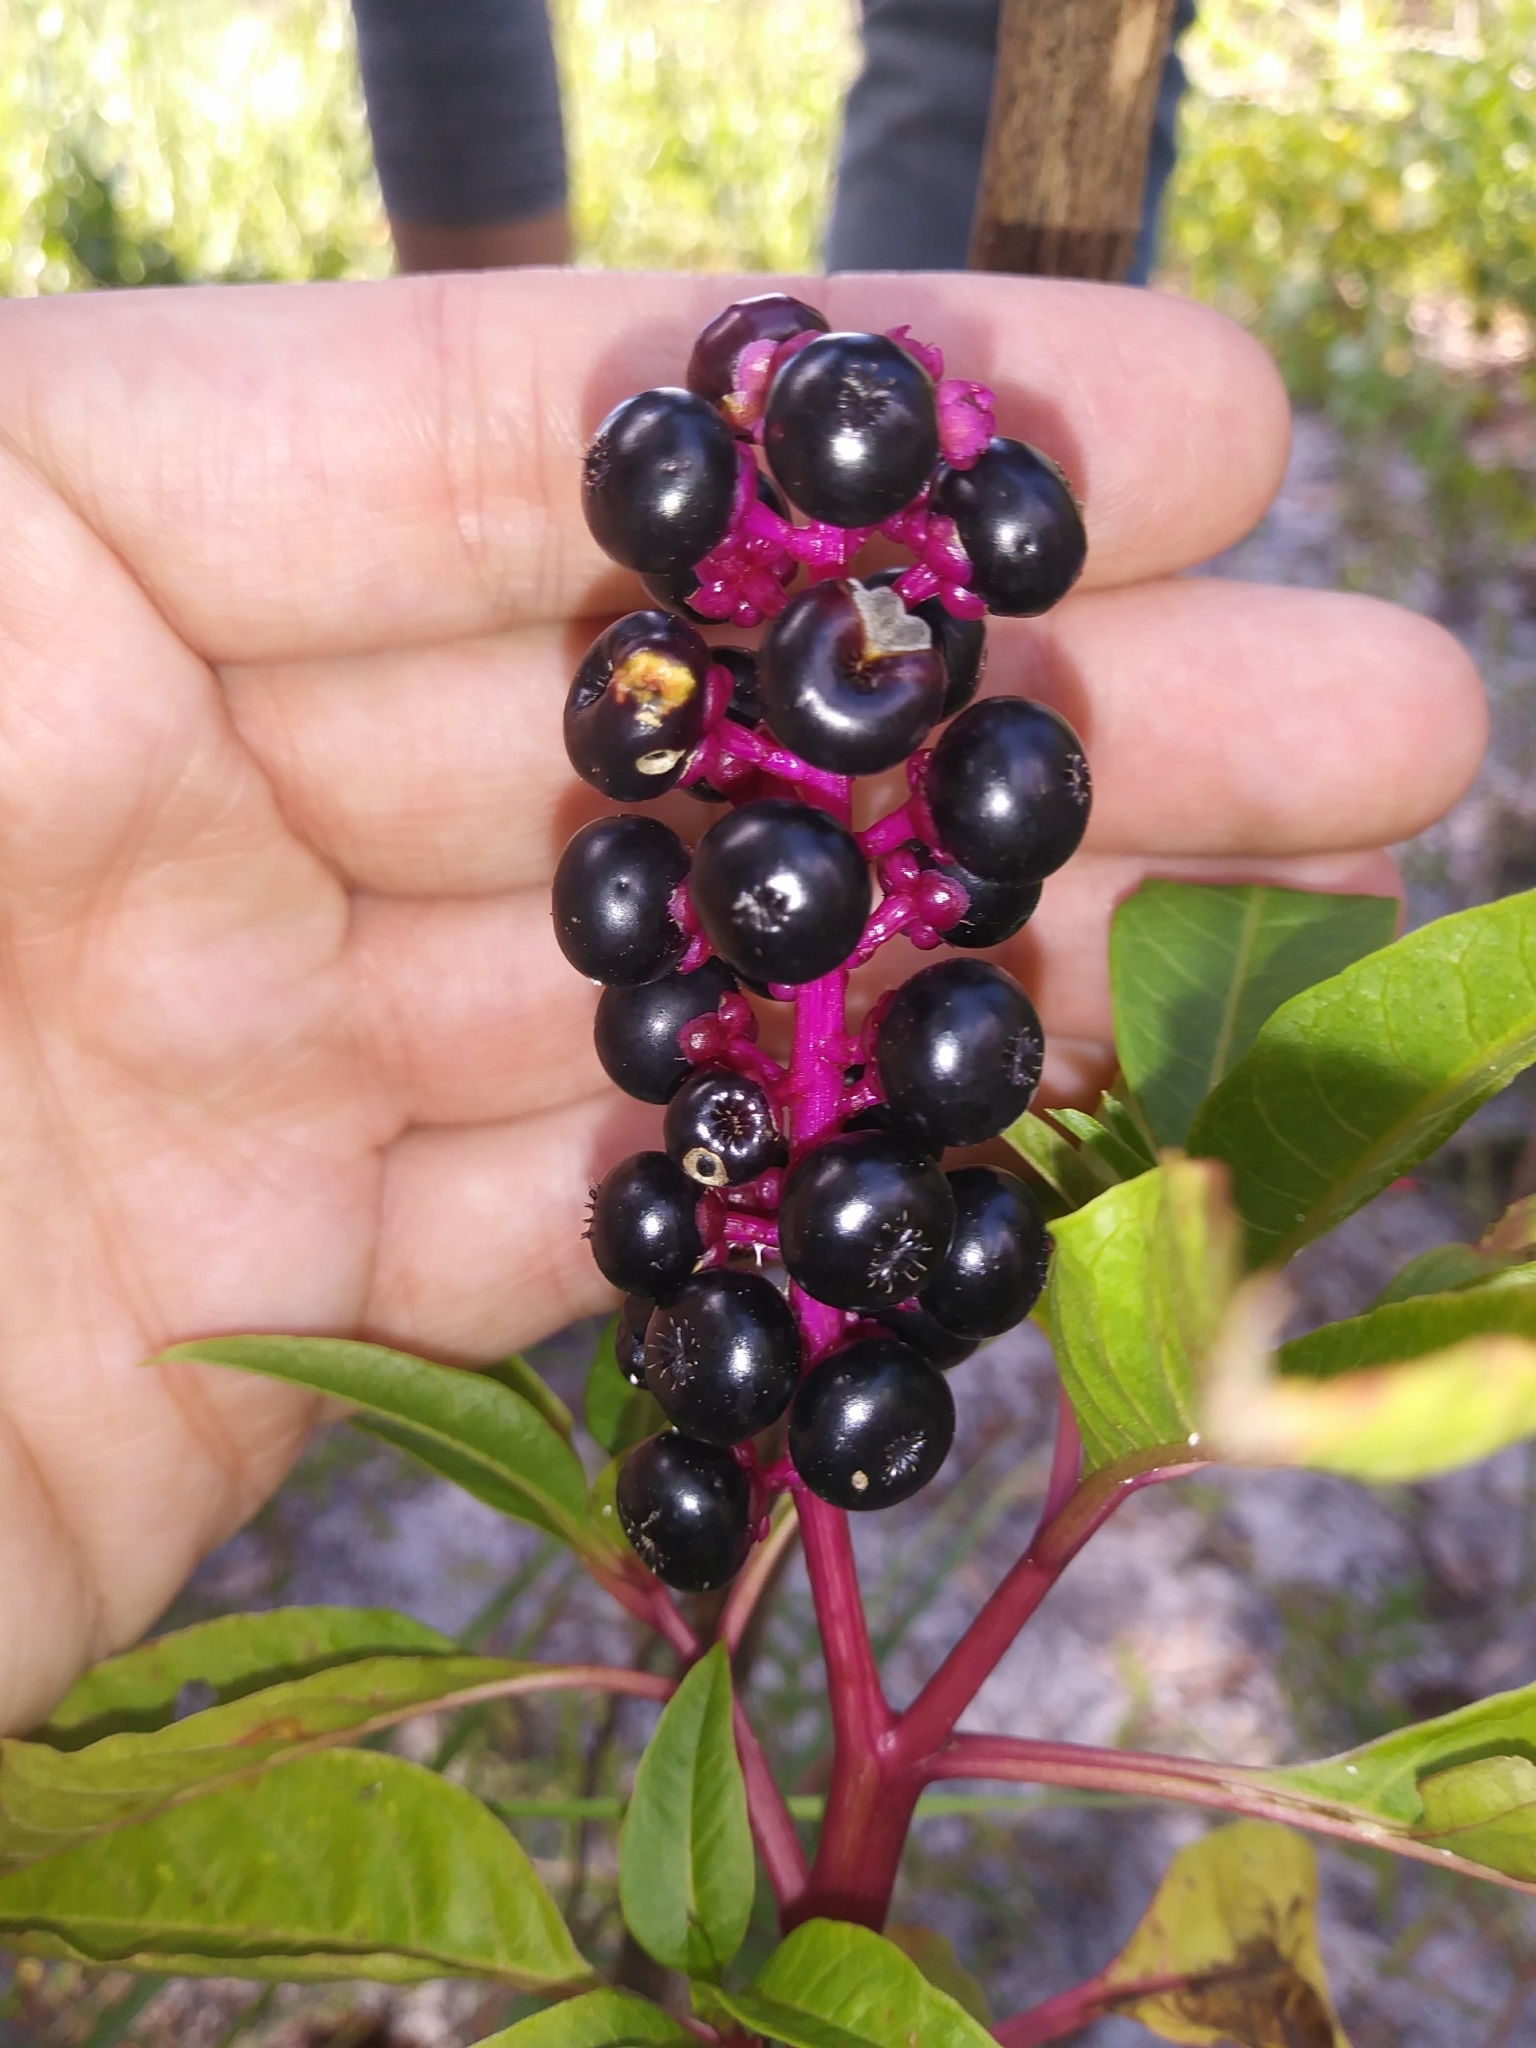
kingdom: Plantae
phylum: Tracheophyta
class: Magnoliopsida
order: Caryophyllales
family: Phytolaccaceae
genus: Phytolacca
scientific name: Phytolacca americana
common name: American pokeweed
